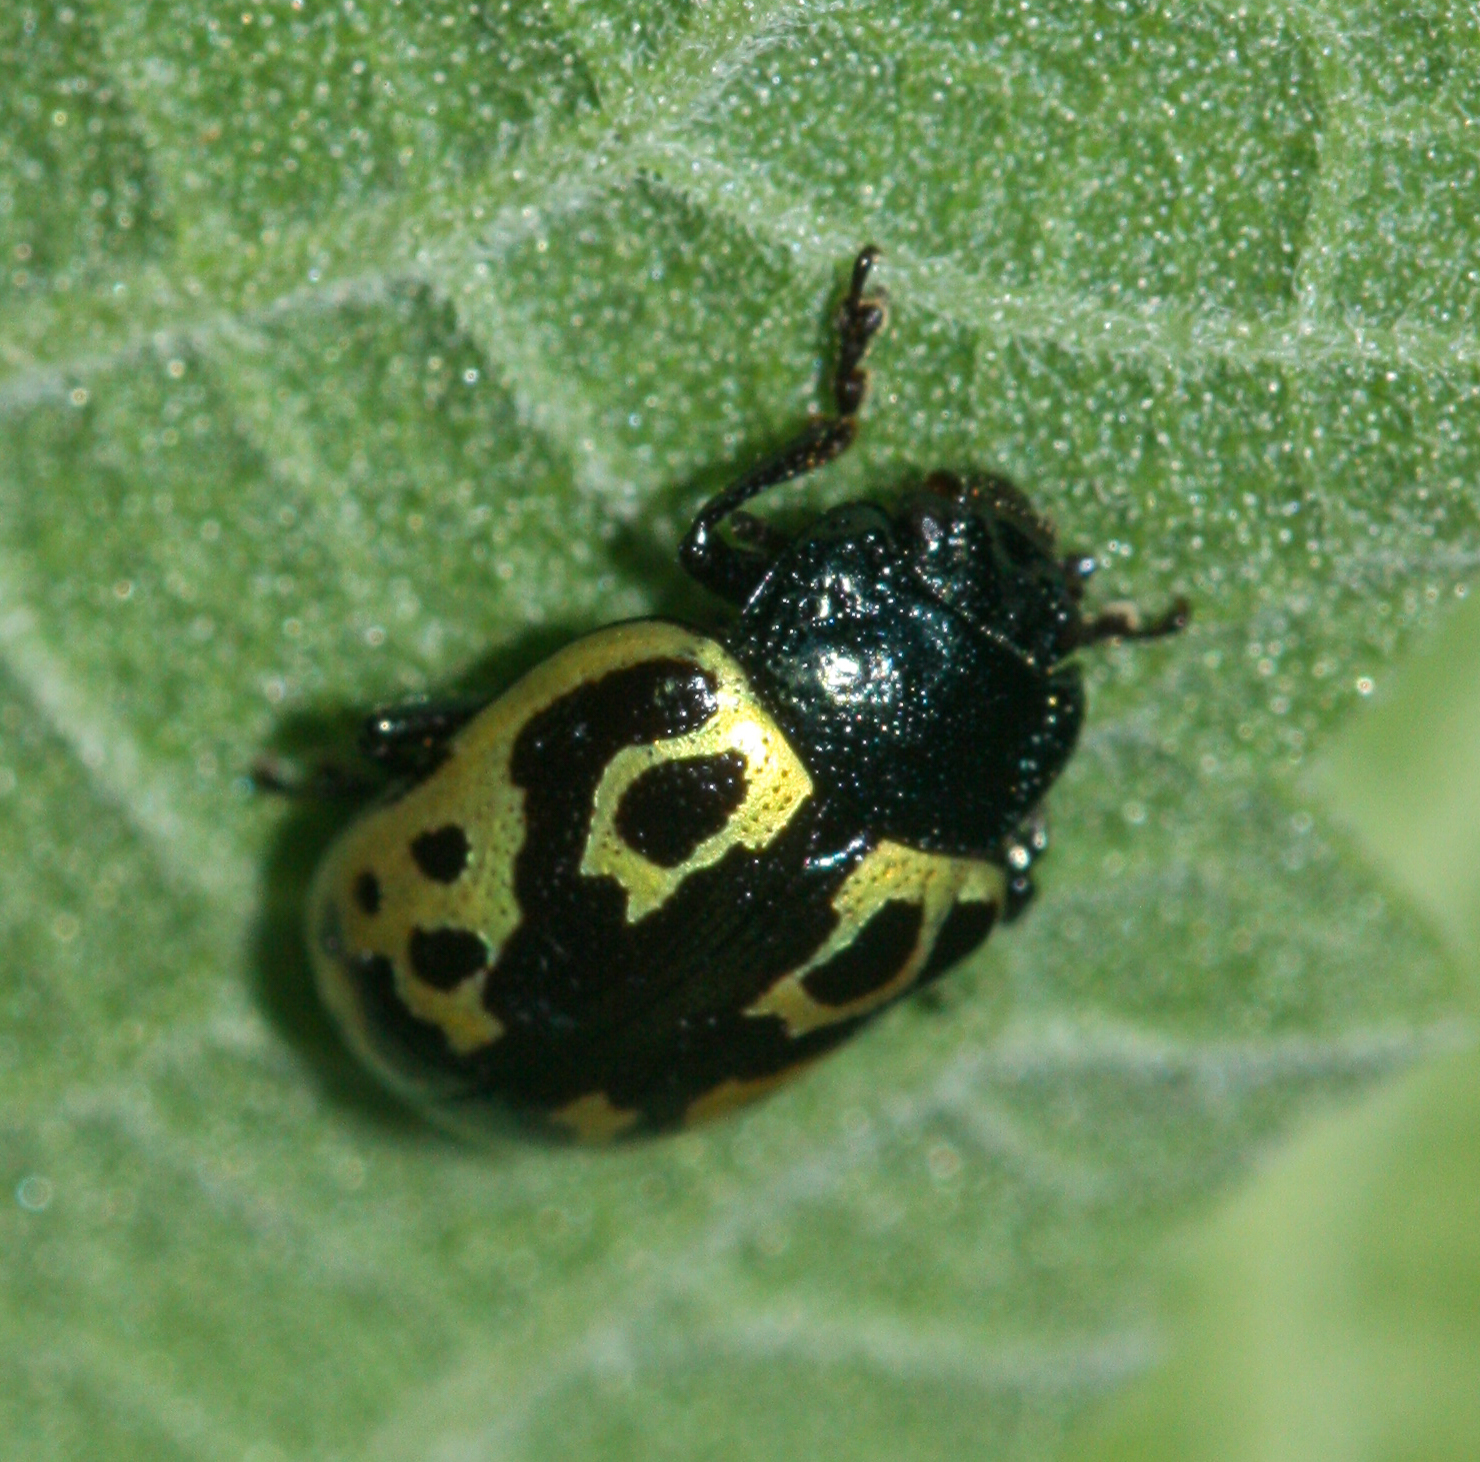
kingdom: Animalia
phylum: Arthropoda
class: Insecta
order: Coleoptera
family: Chrysomelidae
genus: Calligrapha
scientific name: Calligrapha
